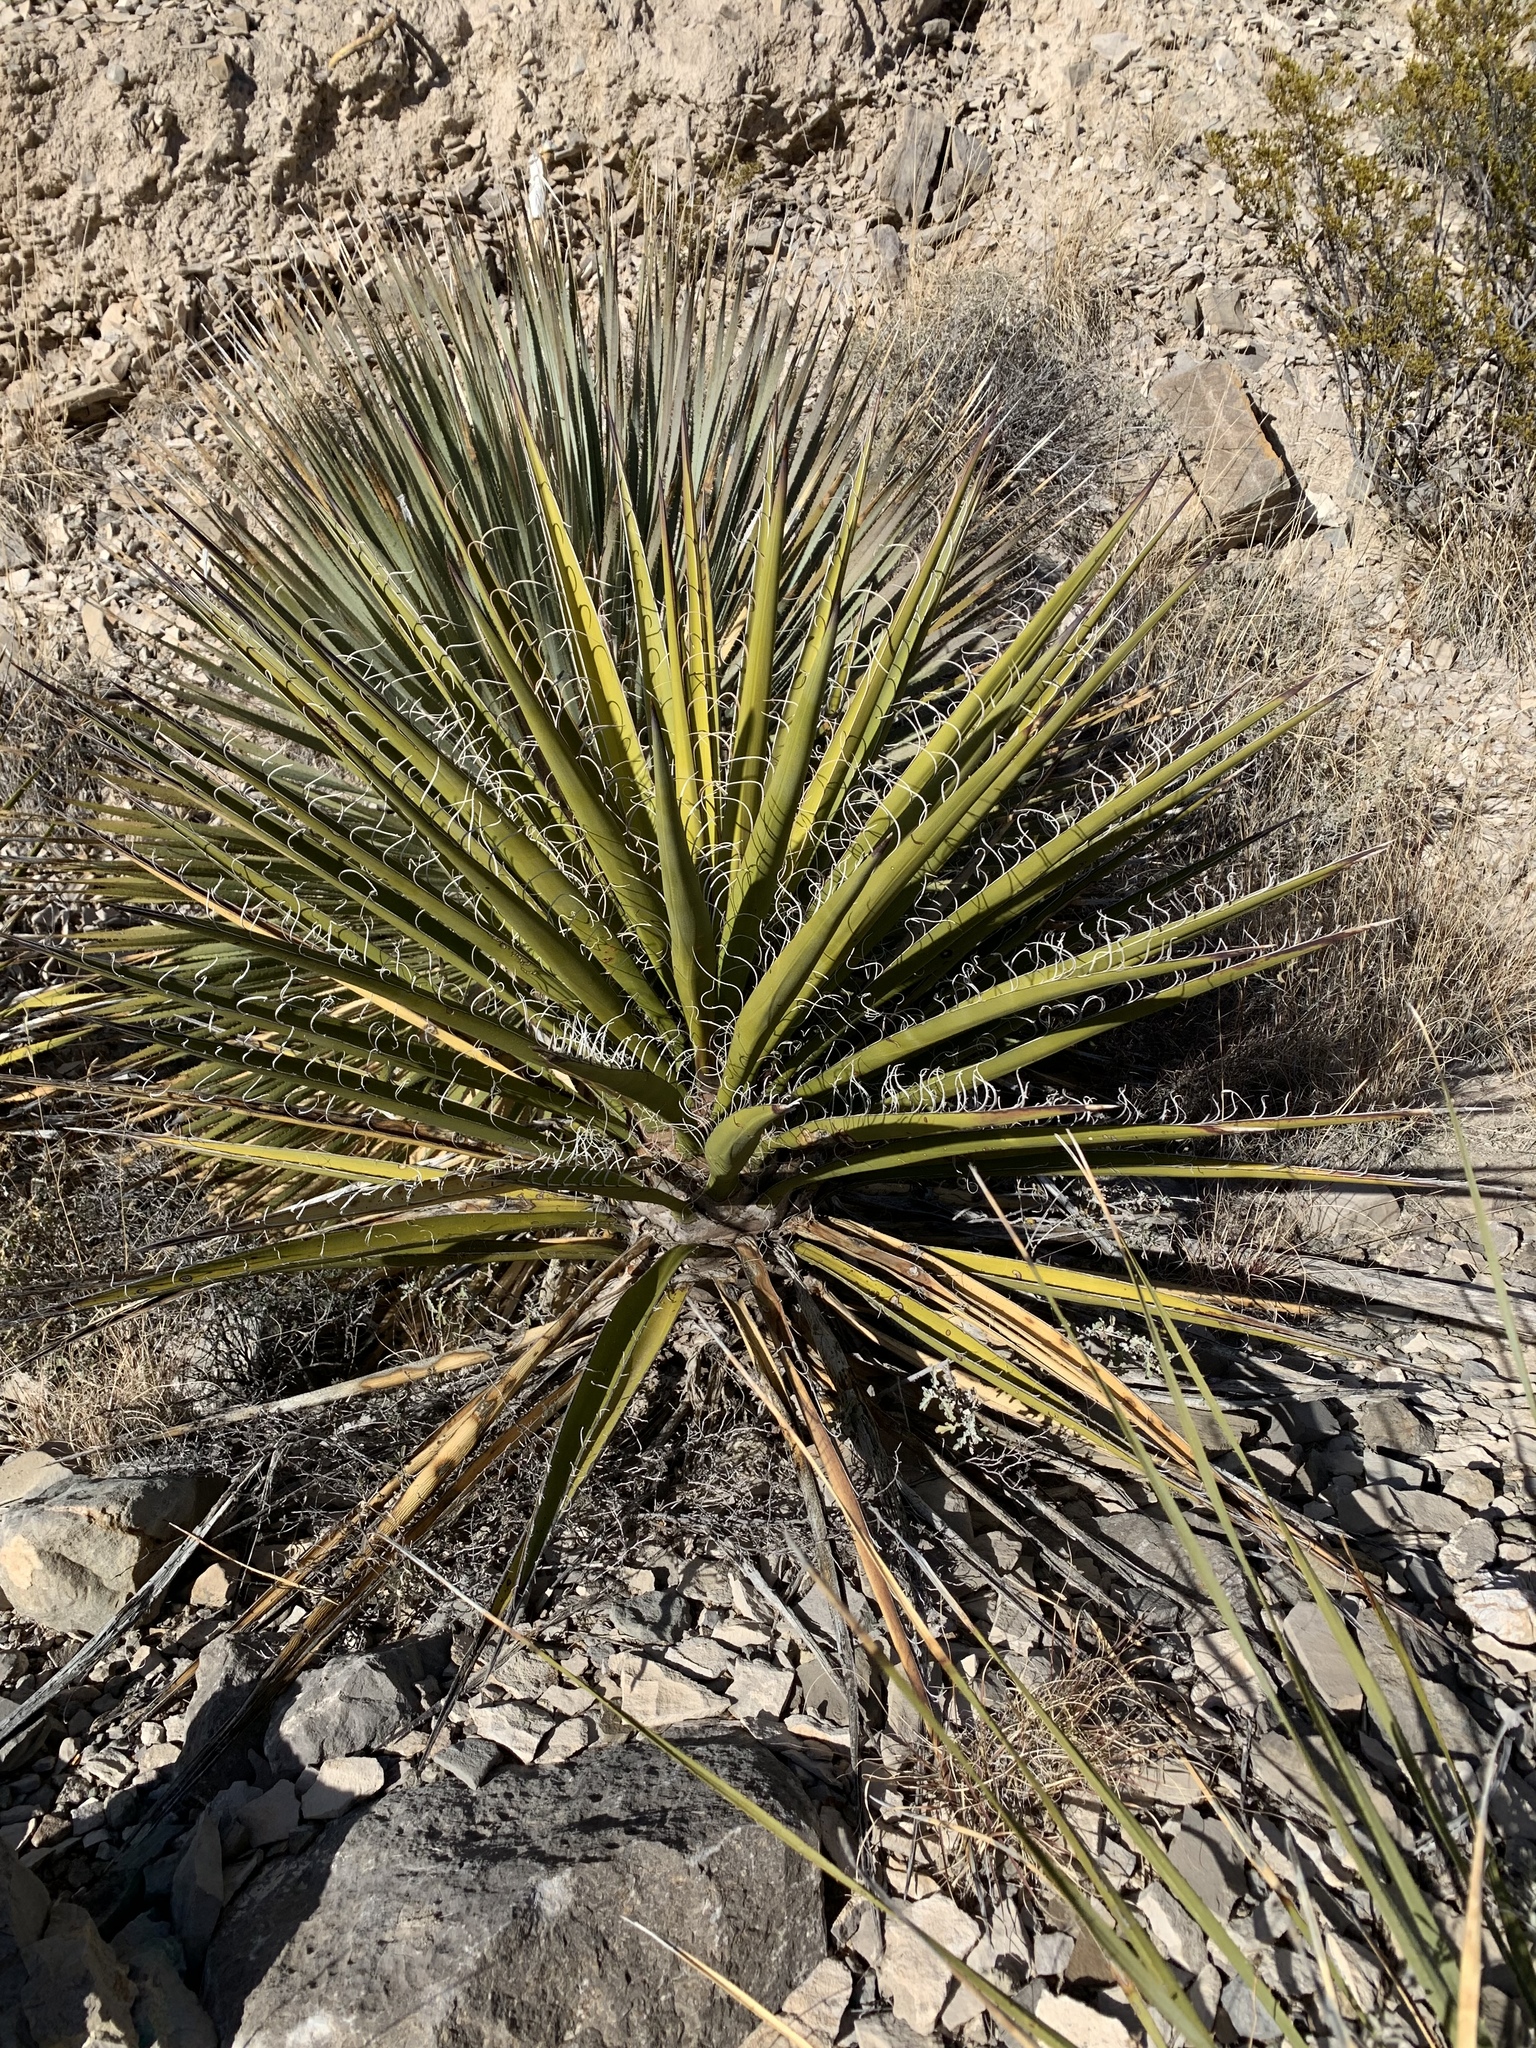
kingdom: Plantae
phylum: Tracheophyta
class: Liliopsida
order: Asparagales
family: Asparagaceae
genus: Yucca
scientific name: Yucca treculiana
